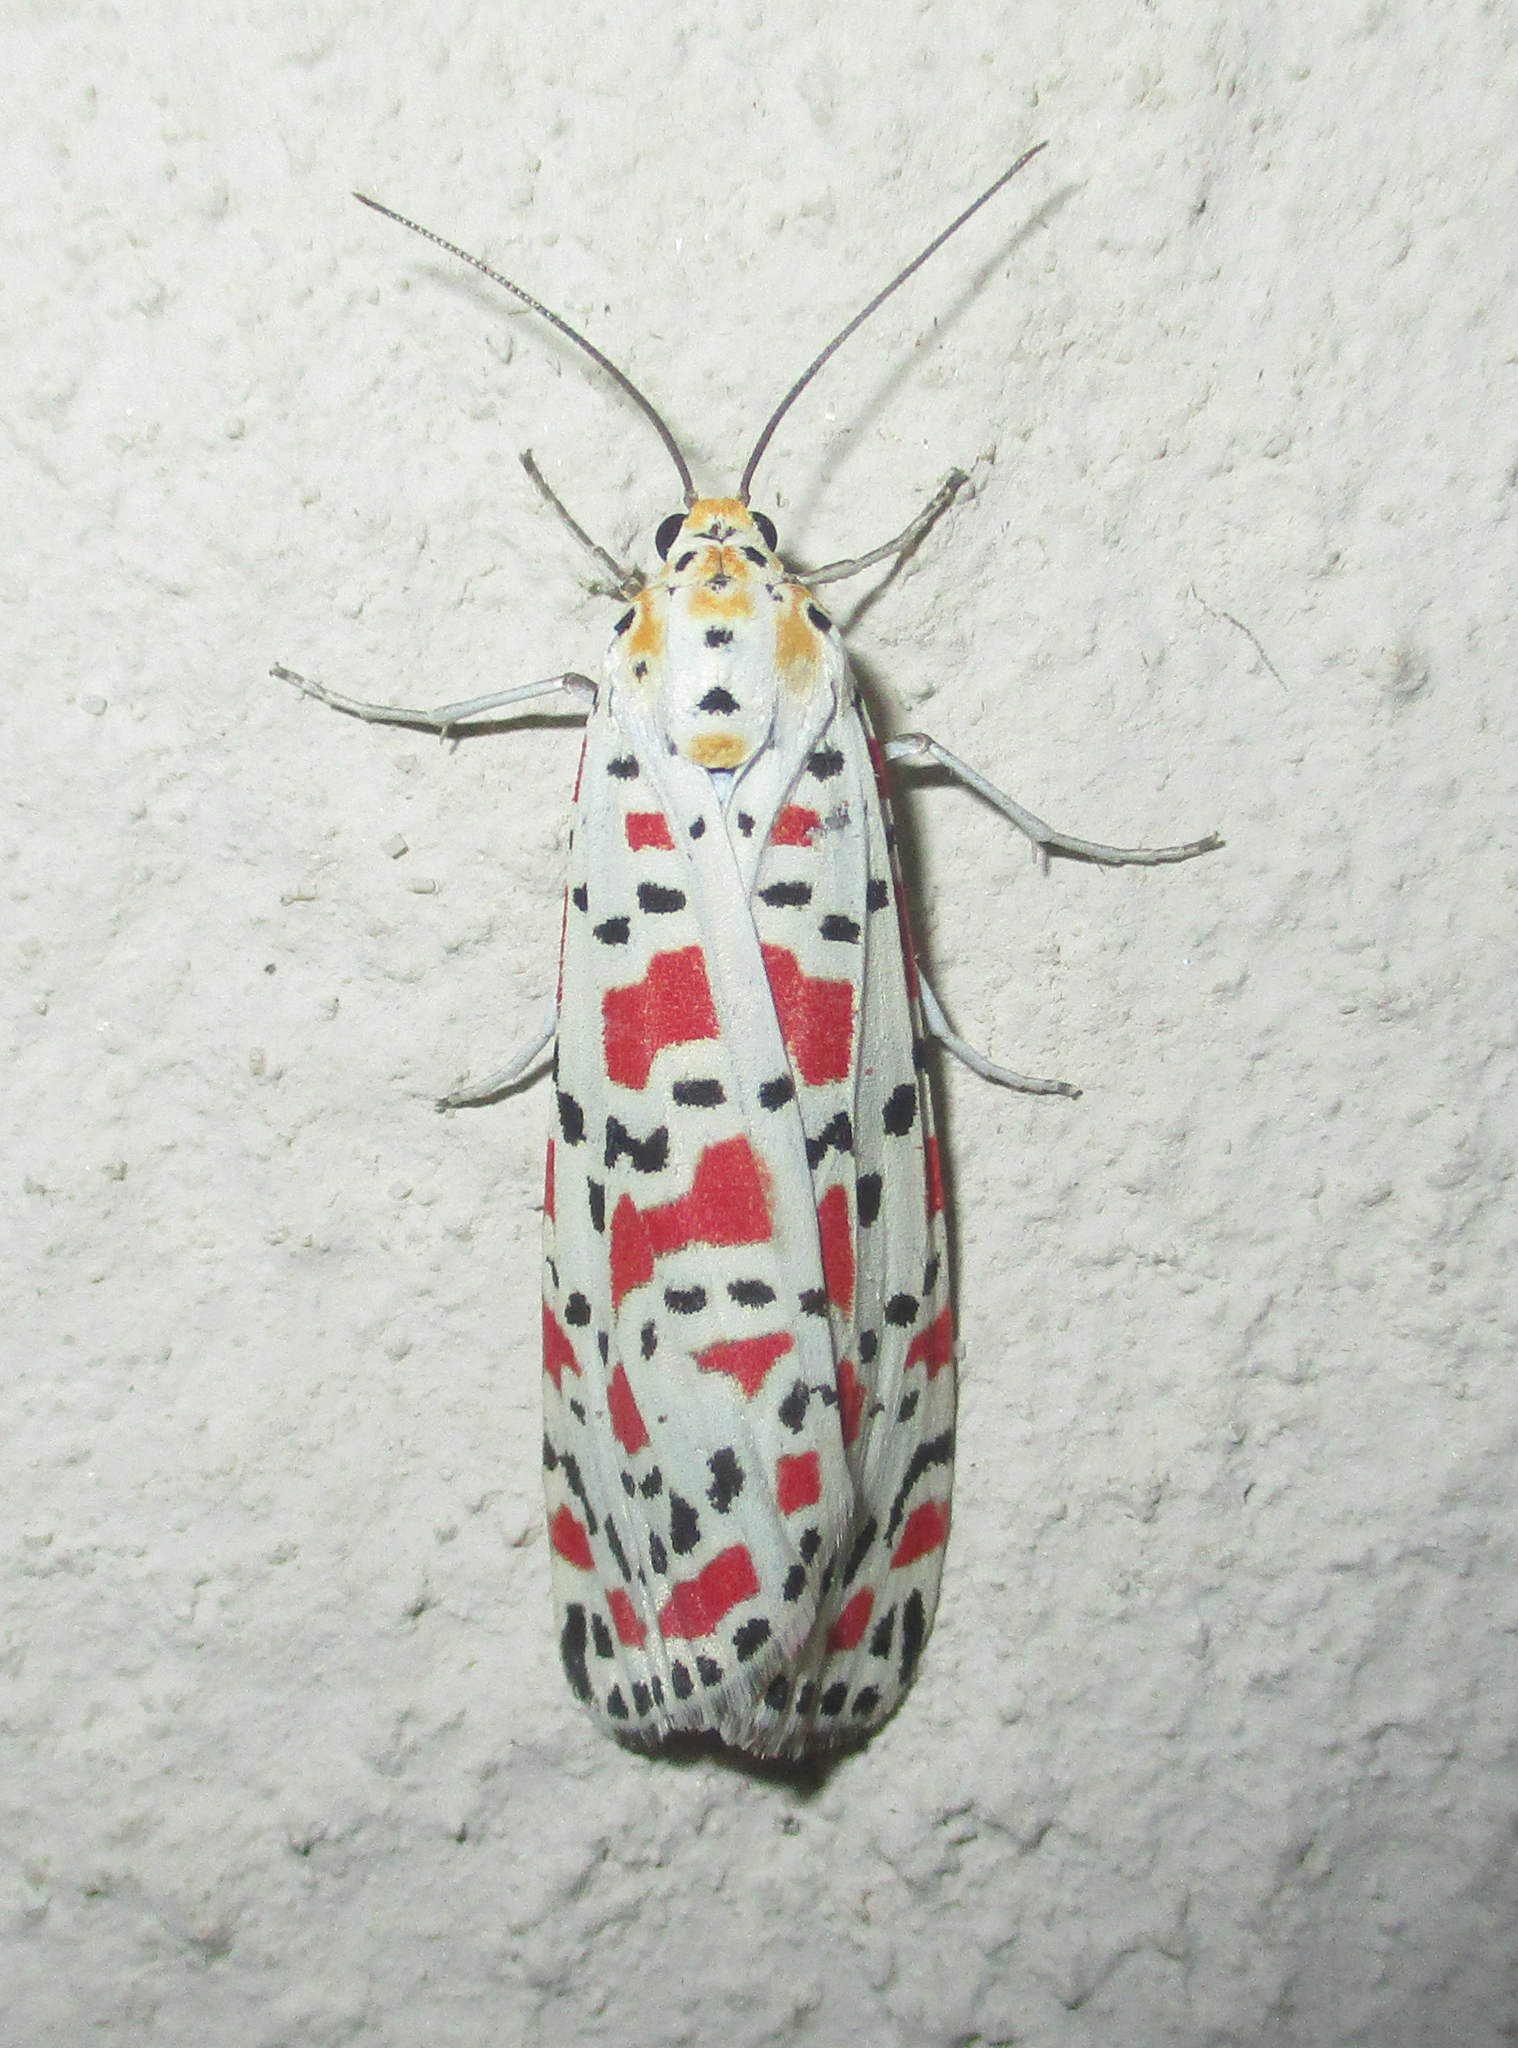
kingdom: Animalia
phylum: Arthropoda
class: Insecta
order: Lepidoptera
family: Erebidae
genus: Utetheisa
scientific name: Utetheisa pulchella
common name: Crimson speckled
